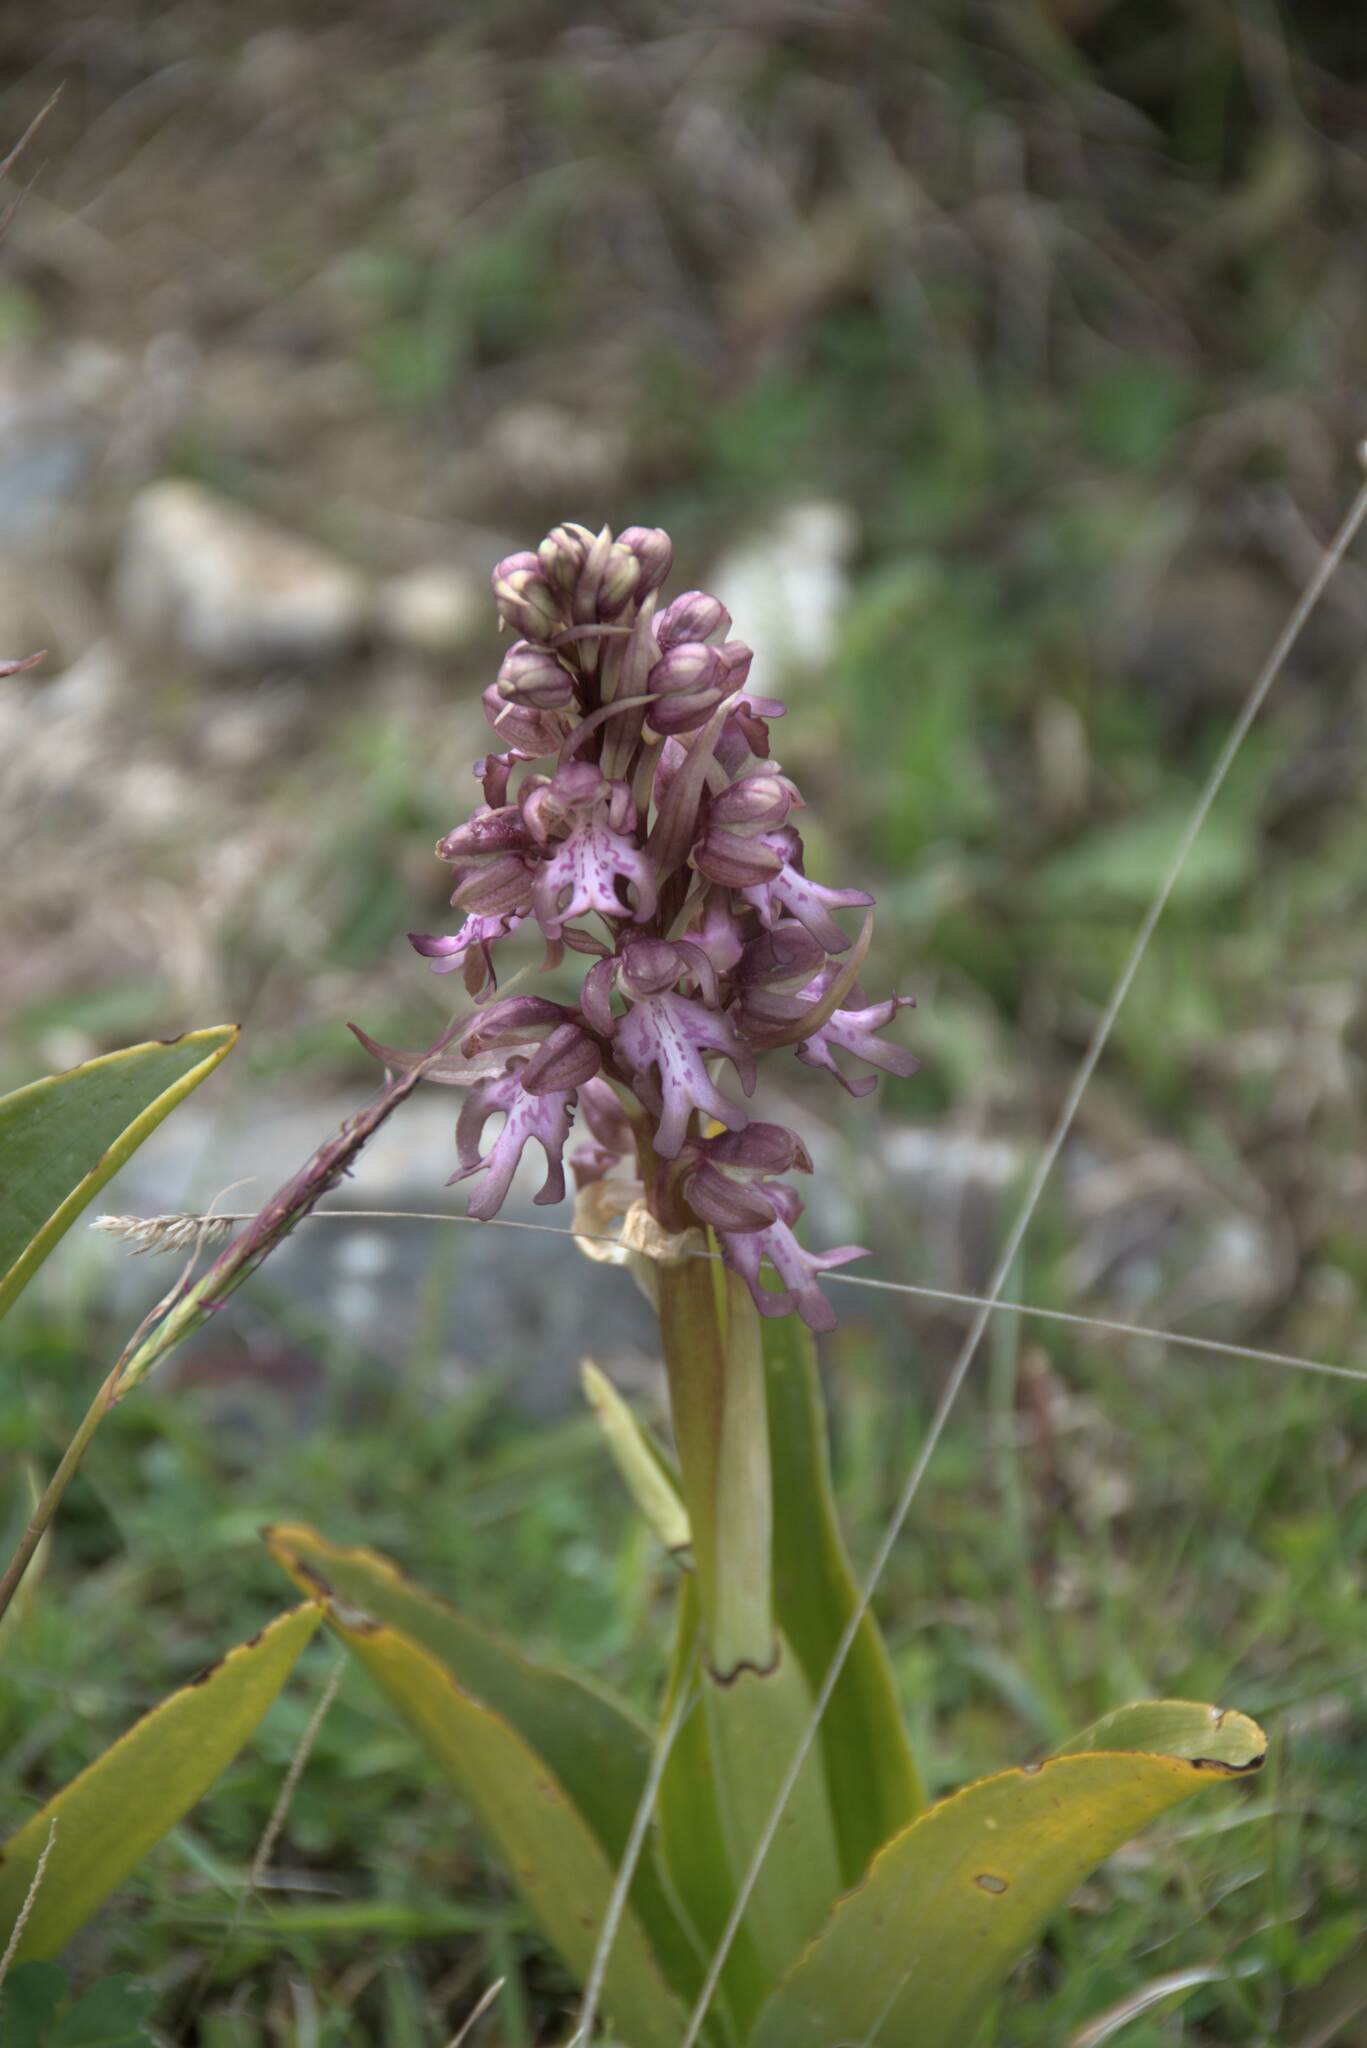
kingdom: Plantae
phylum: Tracheophyta
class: Liliopsida
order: Asparagales
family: Orchidaceae
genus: Himantoglossum
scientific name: Himantoglossum robertianum
